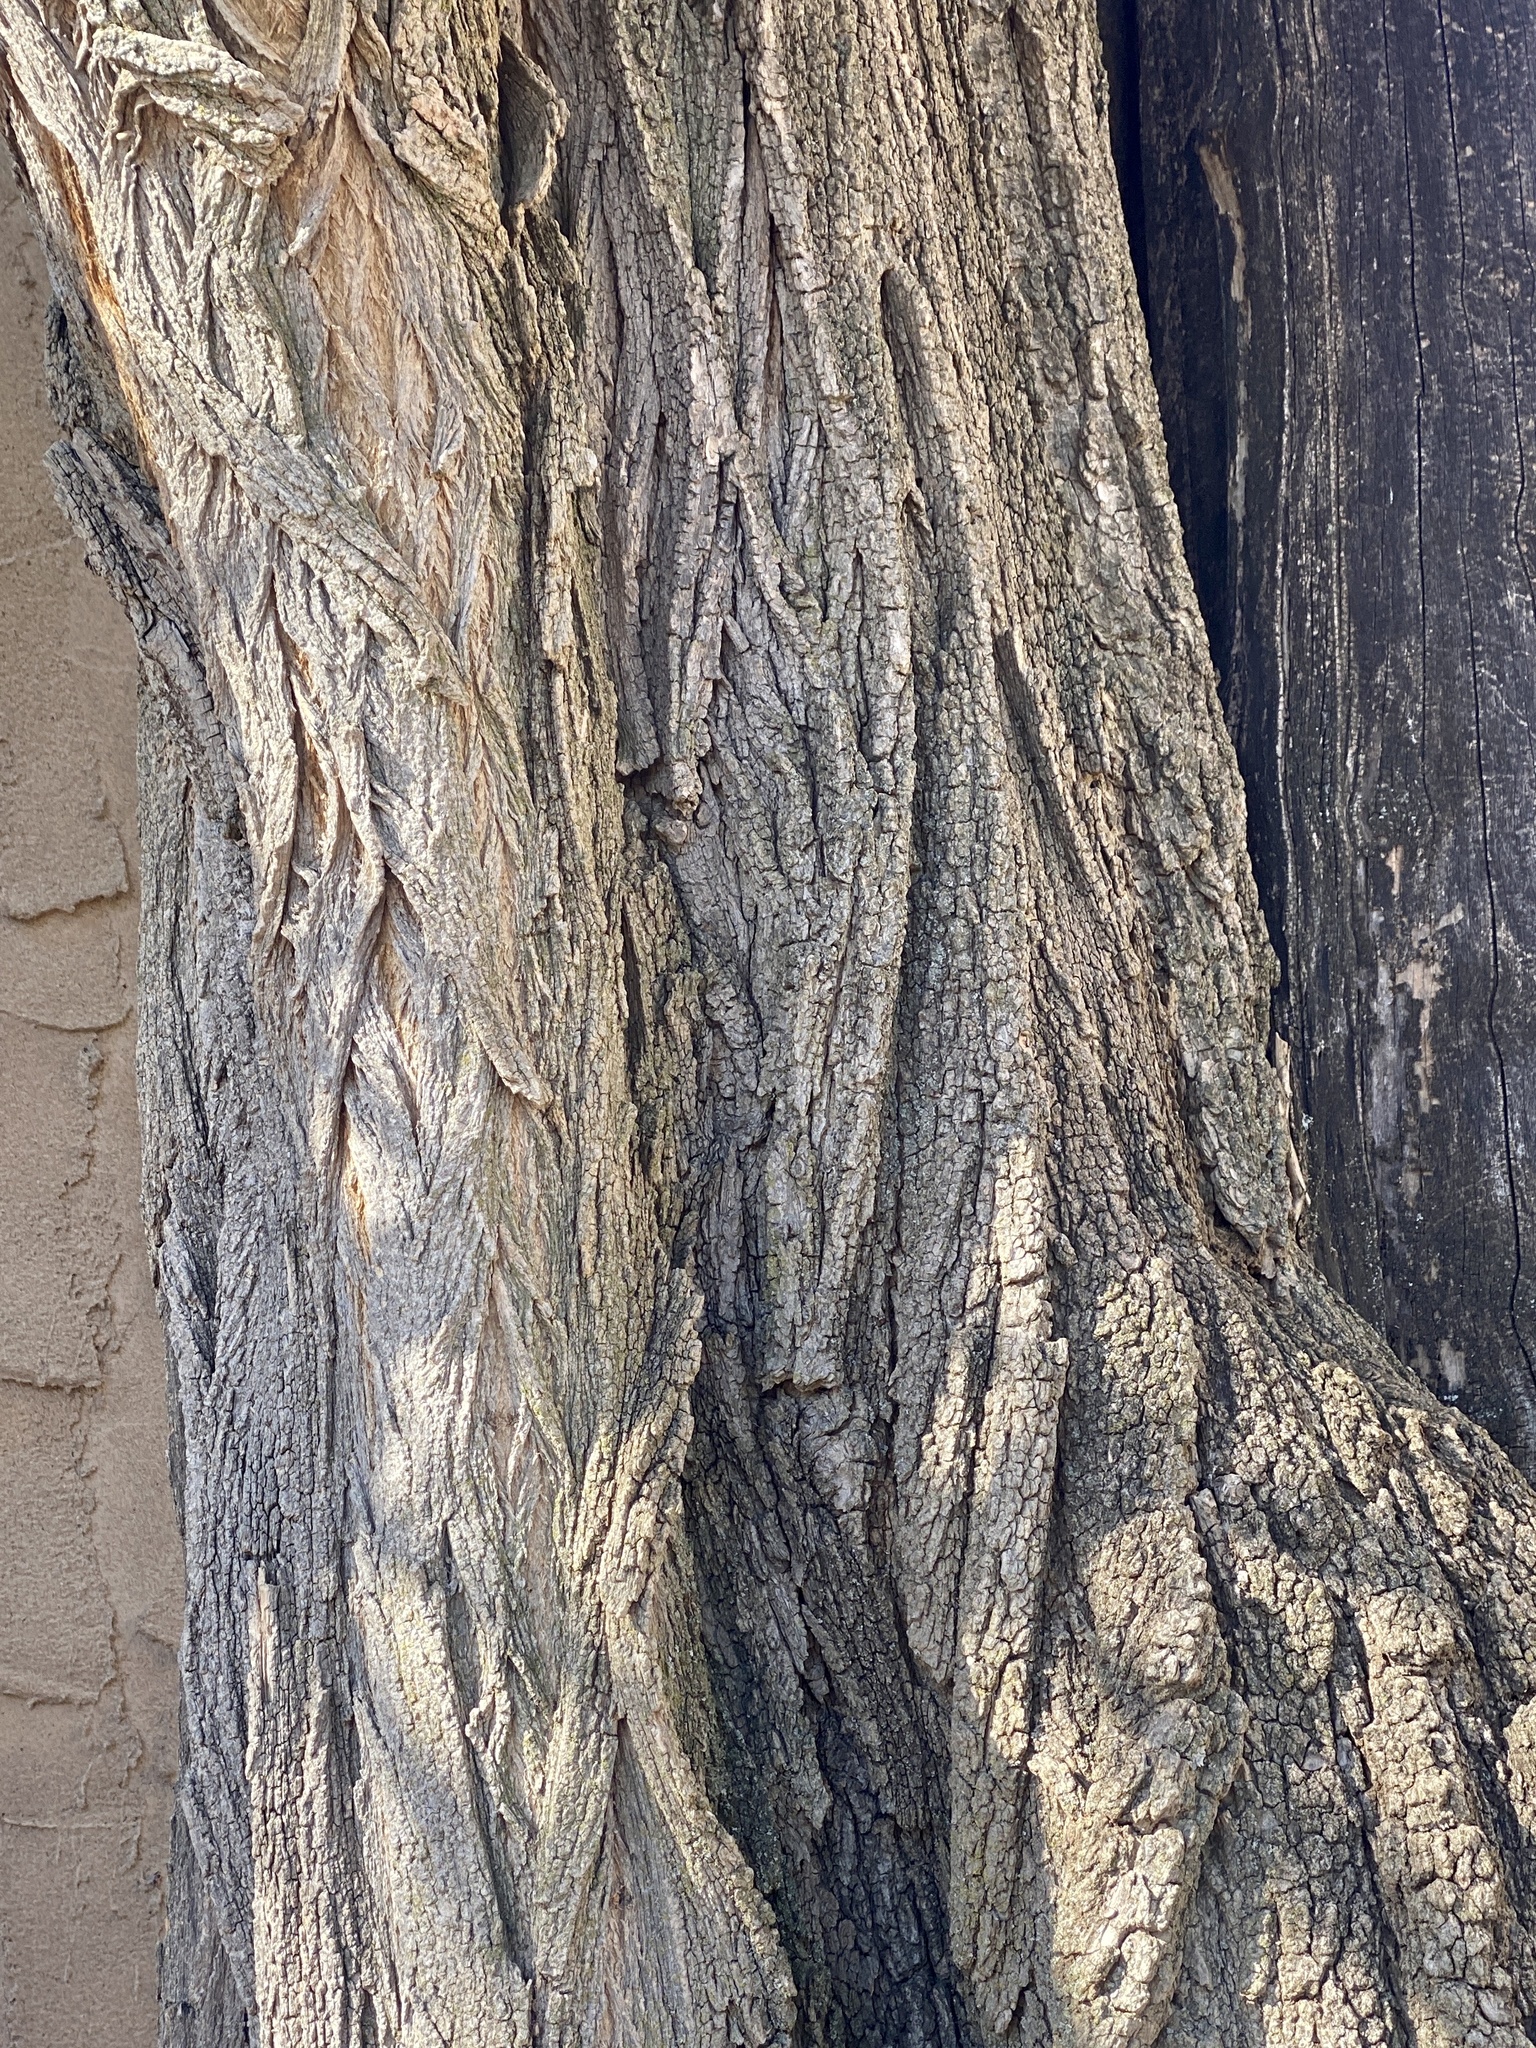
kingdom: Plantae
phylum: Tracheophyta
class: Magnoliopsida
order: Fabales
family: Fabaceae
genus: Robinia
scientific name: Robinia pseudoacacia
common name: Black locust
